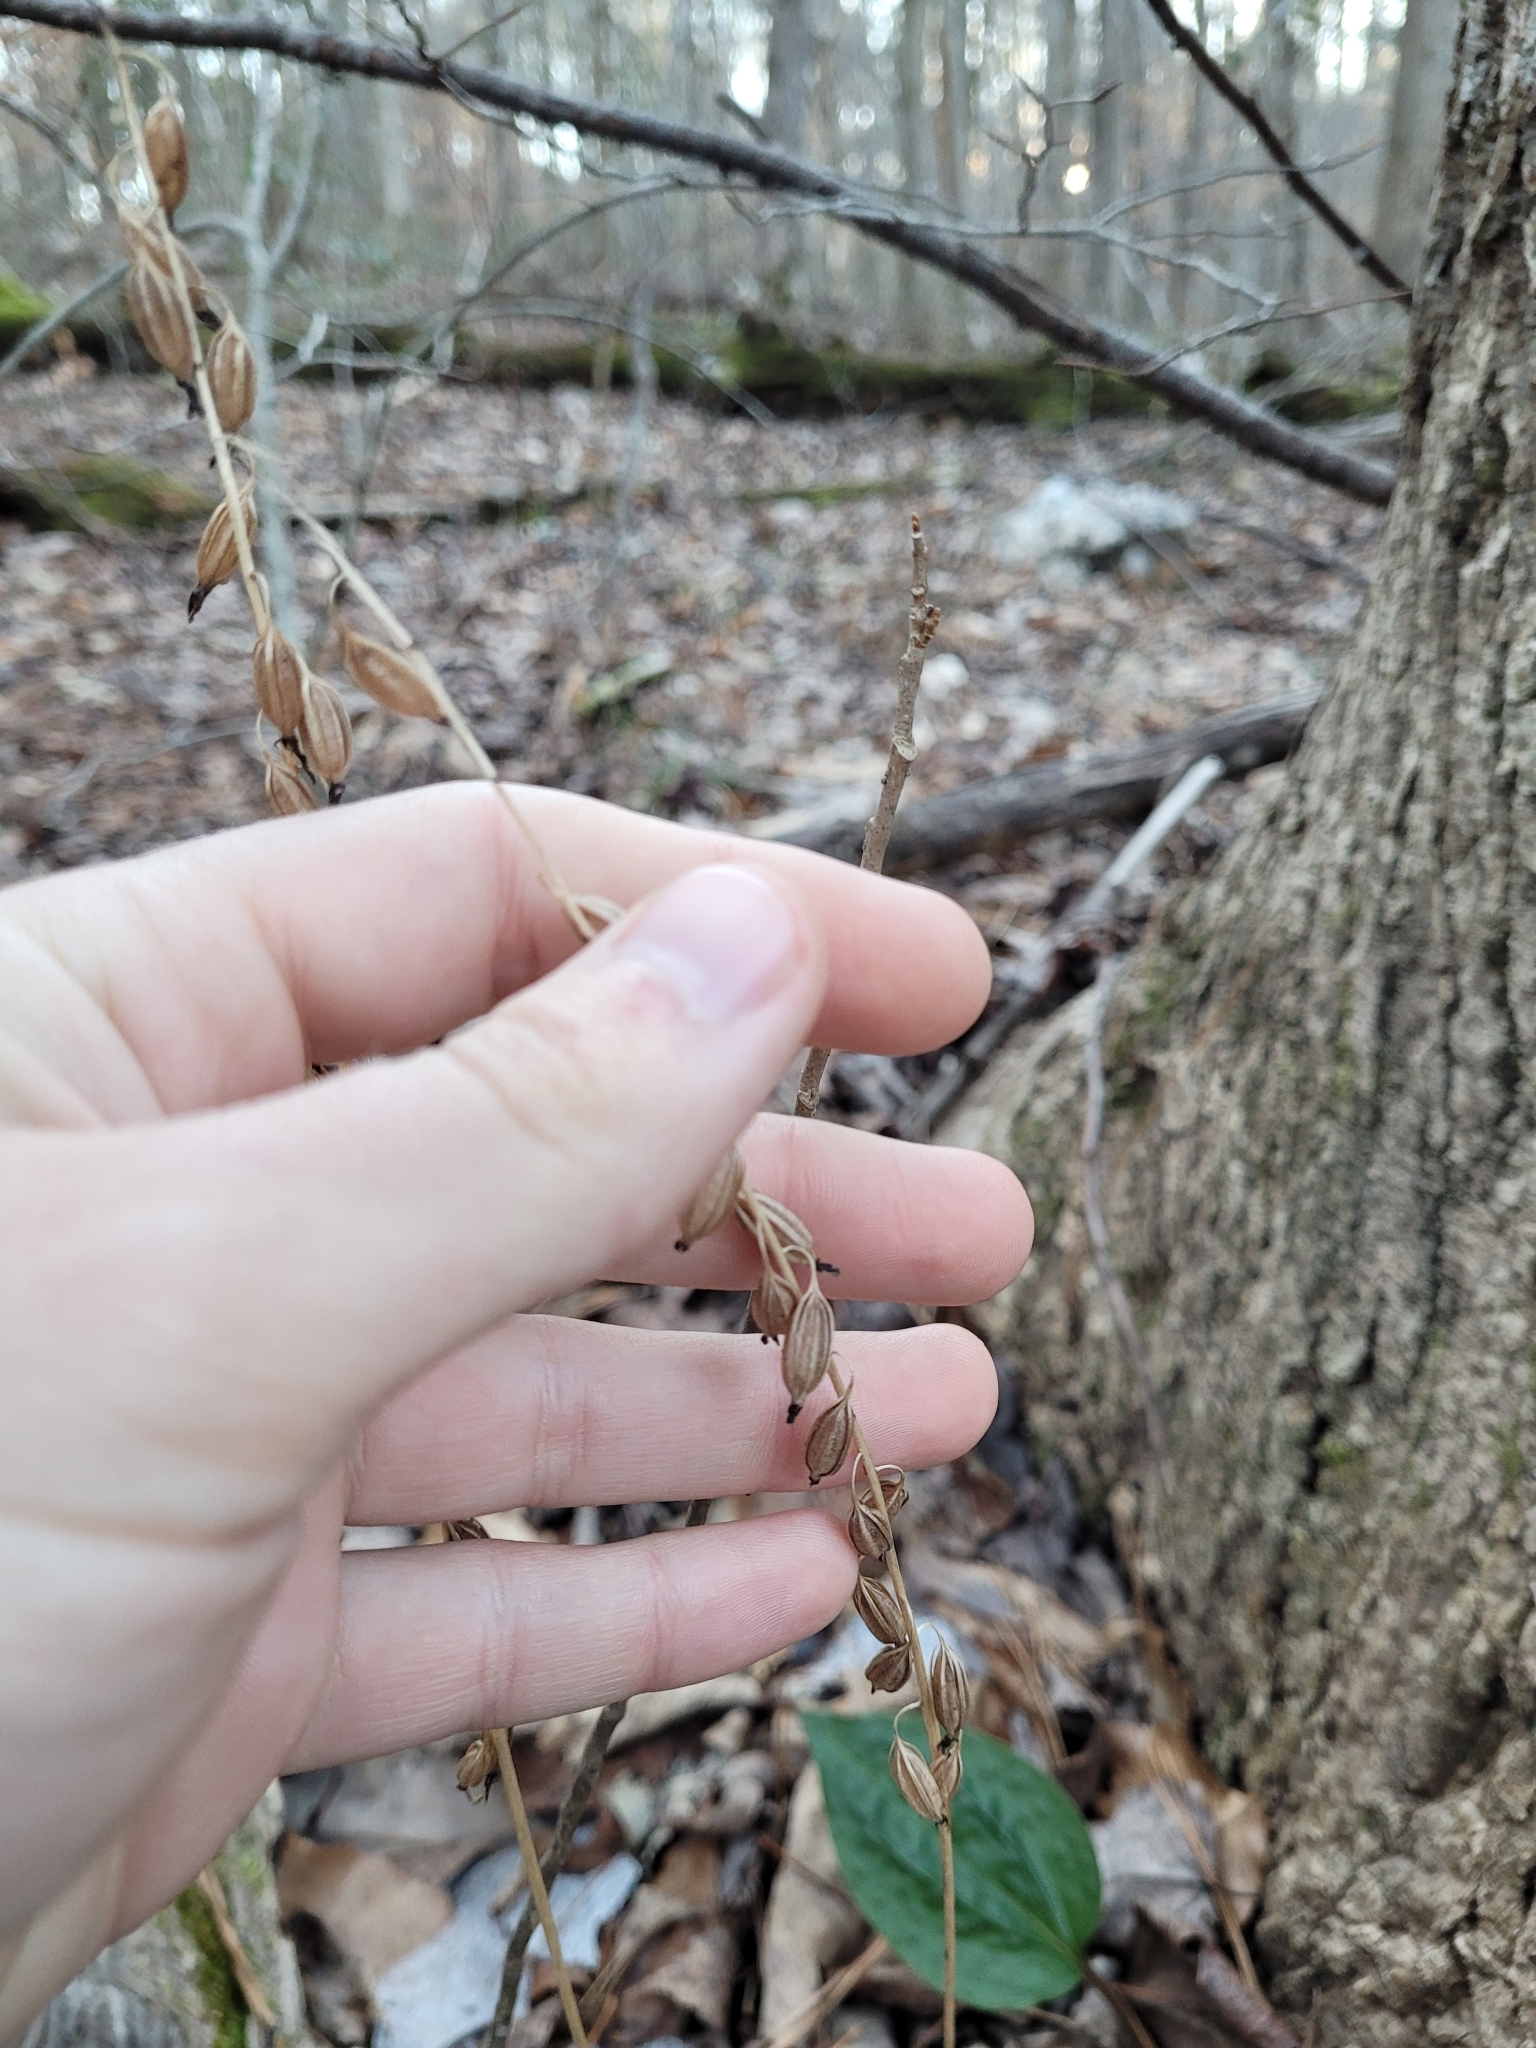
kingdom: Plantae
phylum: Tracheophyta
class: Liliopsida
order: Asparagales
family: Orchidaceae
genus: Tipularia
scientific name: Tipularia discolor
